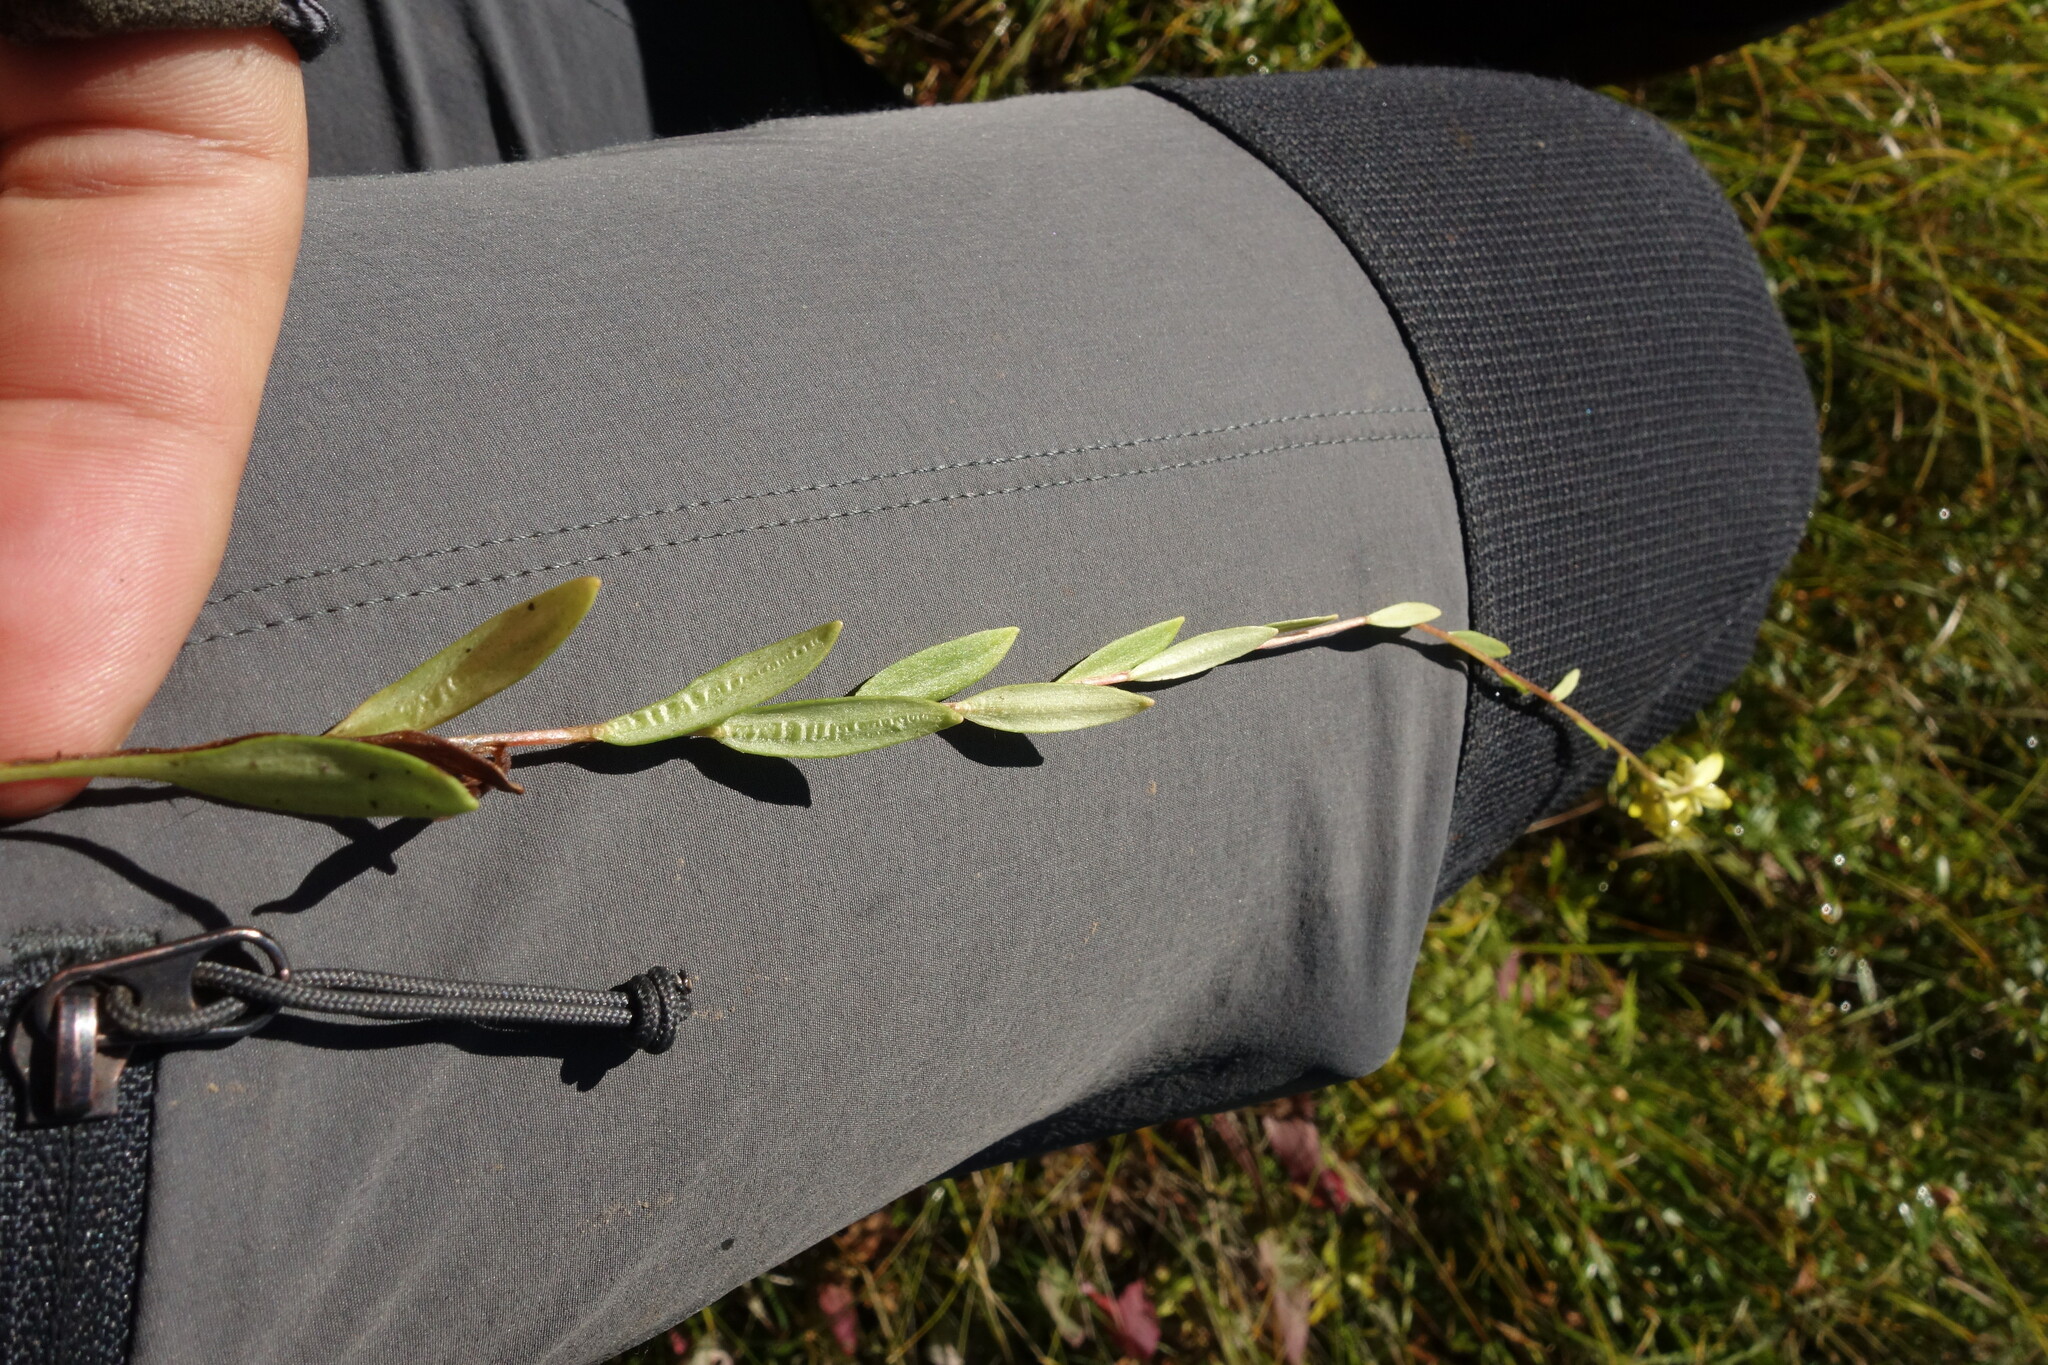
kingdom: Plantae
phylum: Tracheophyta
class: Magnoliopsida
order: Saxifragales
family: Saxifragaceae
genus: Saxifraga
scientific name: Saxifraga hirculus
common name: Yellow marsh saxifrage
